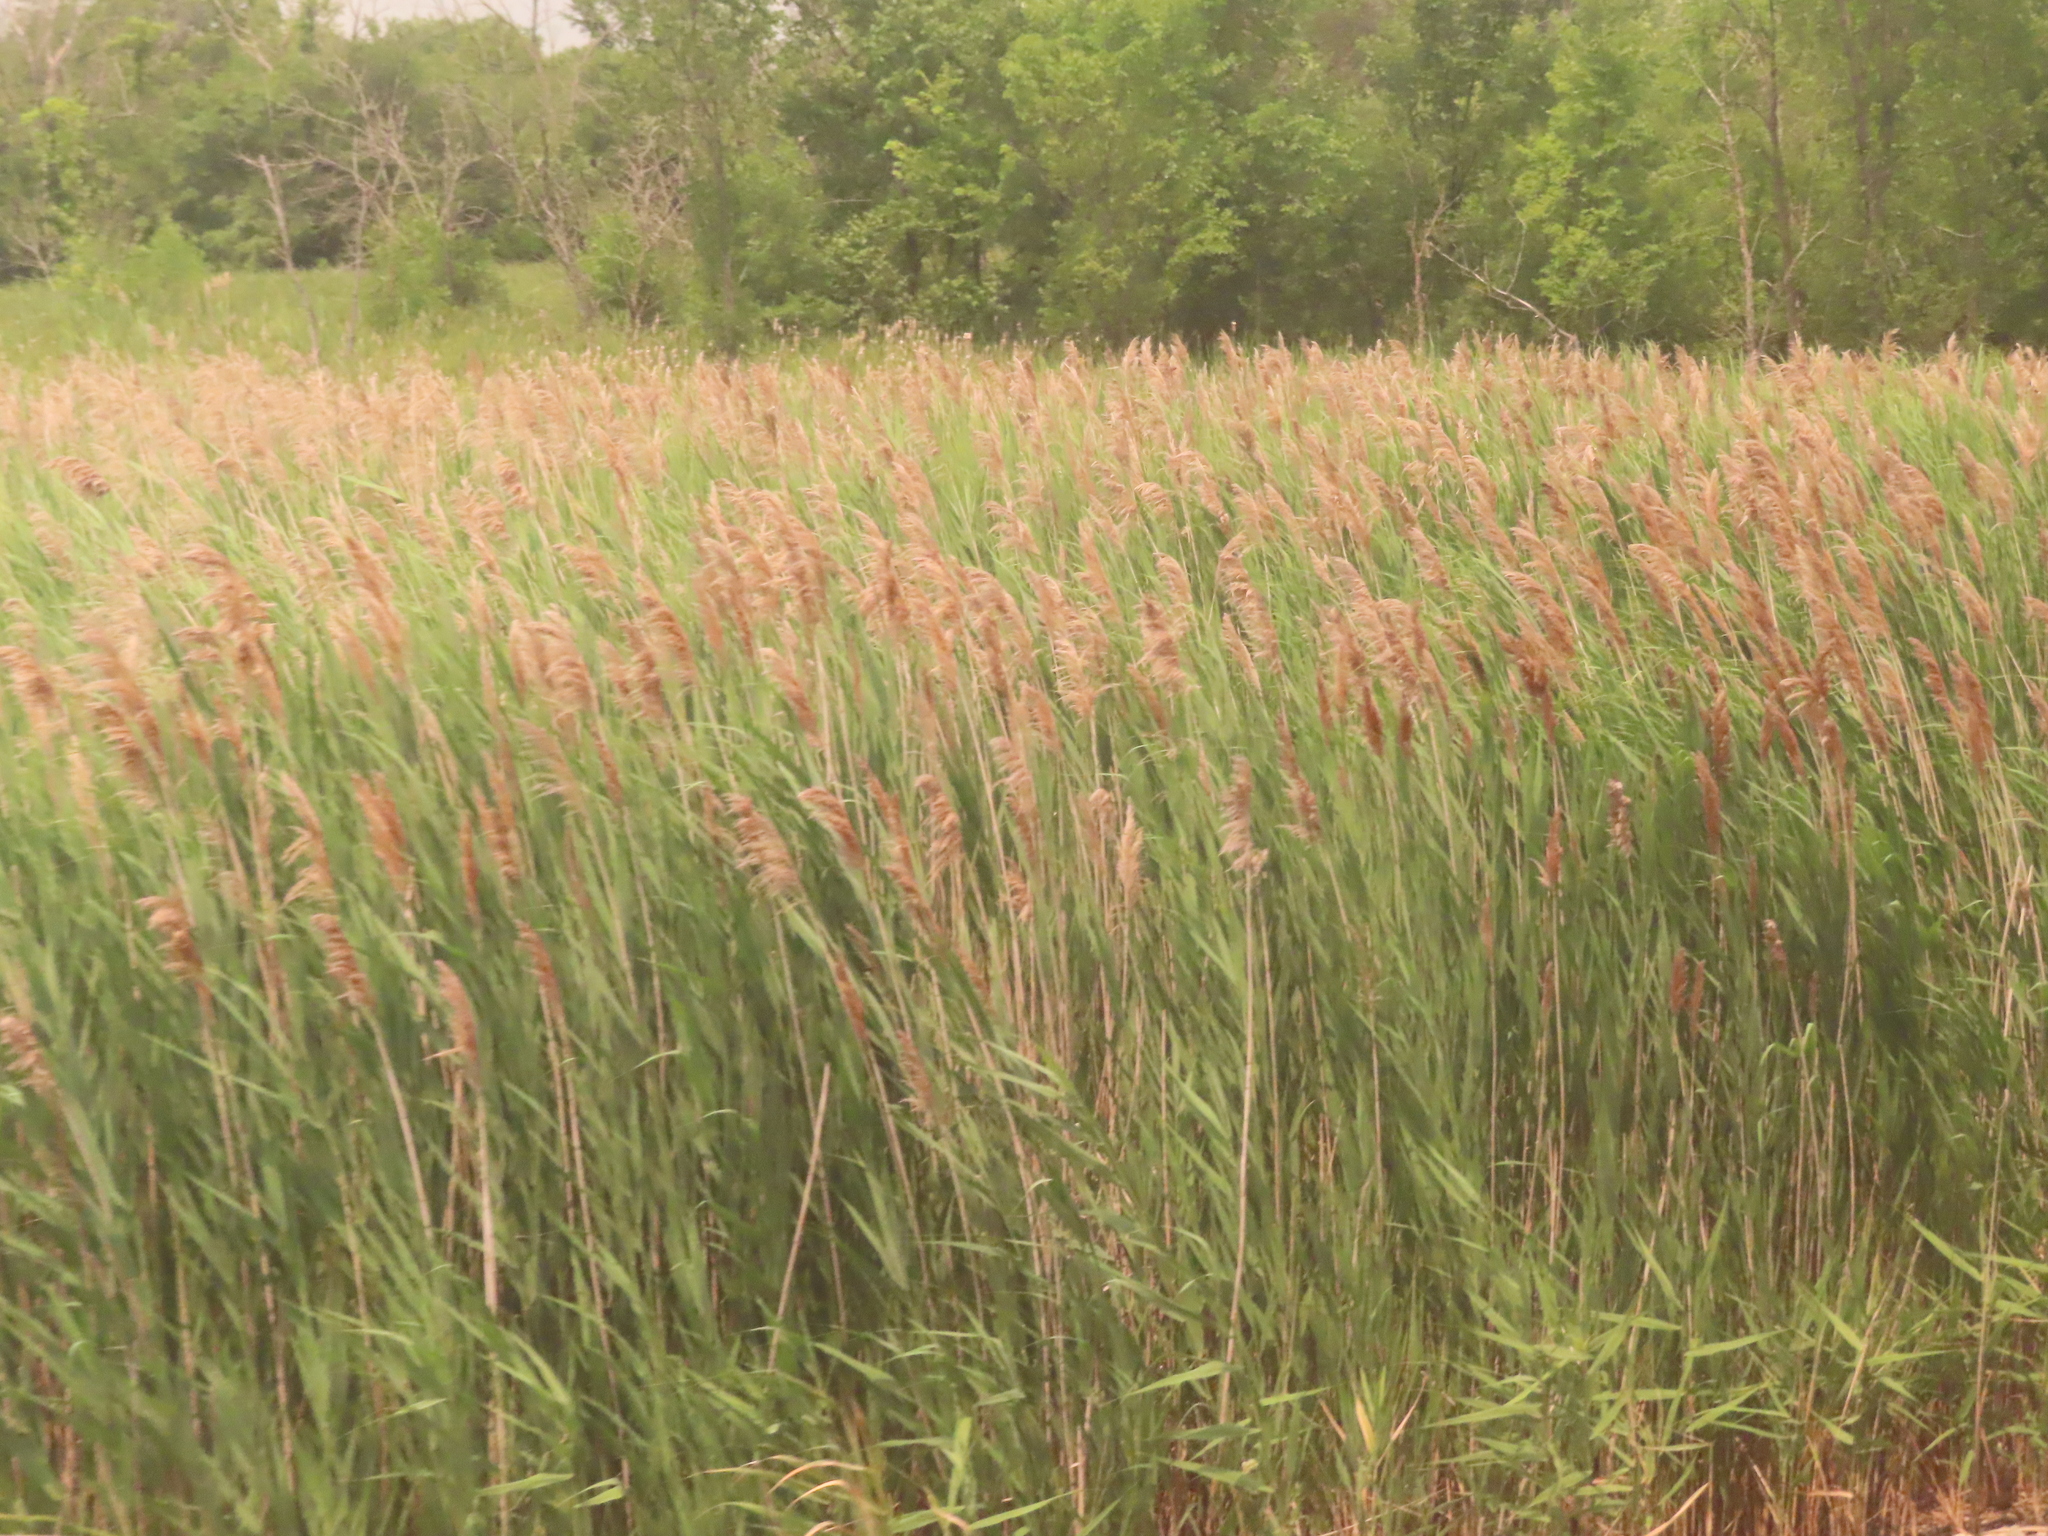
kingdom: Plantae
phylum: Tracheophyta
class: Liliopsida
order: Poales
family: Poaceae
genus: Phragmites
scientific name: Phragmites australis
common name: Common reed
